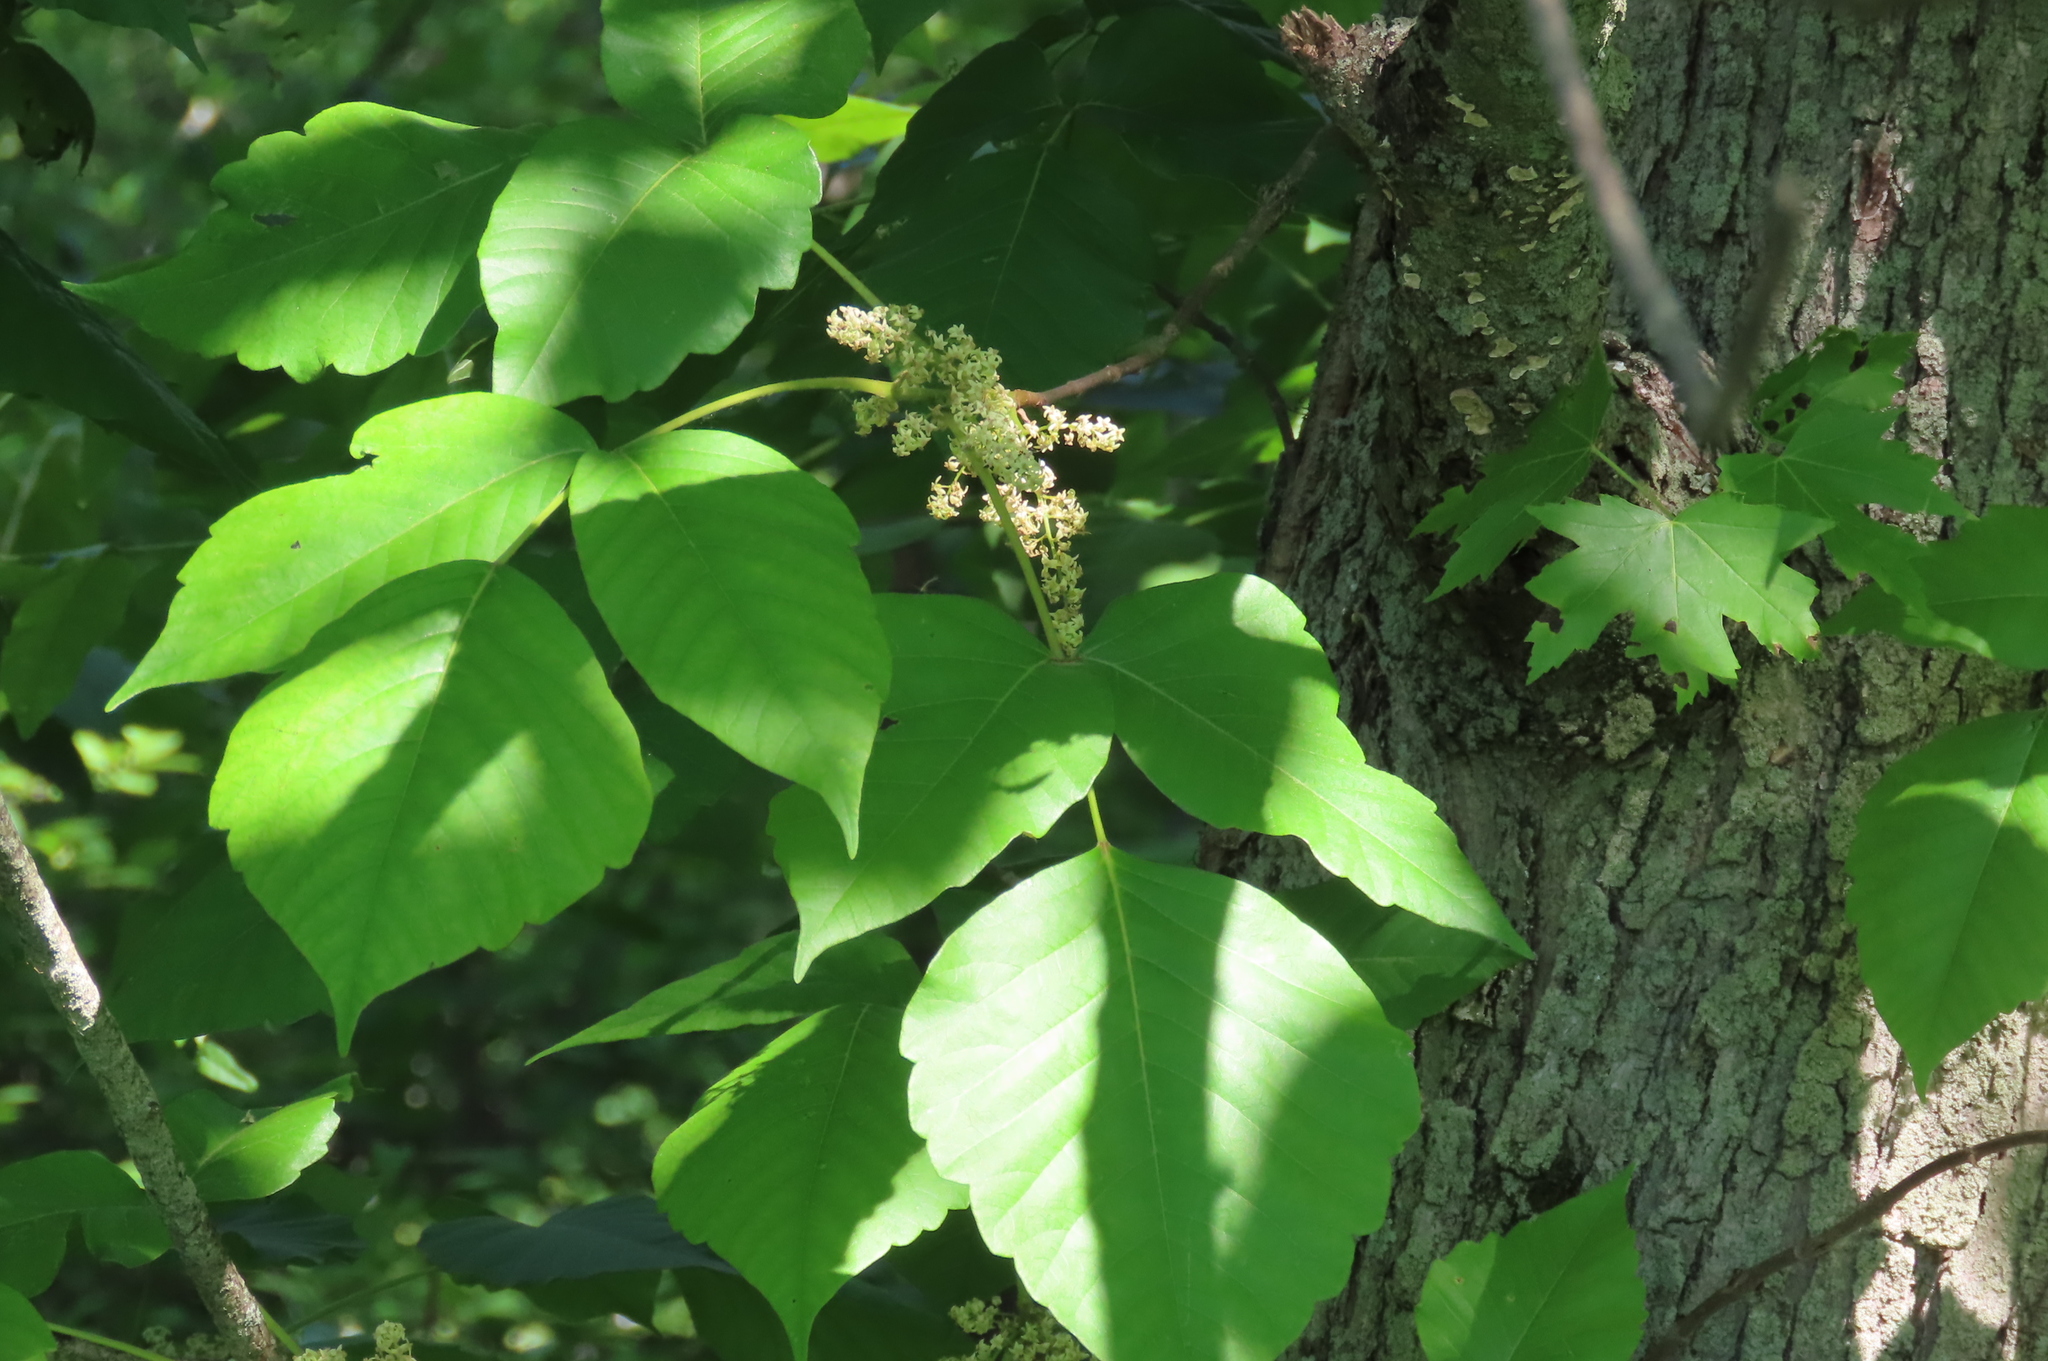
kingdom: Plantae
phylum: Tracheophyta
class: Magnoliopsida
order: Sapindales
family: Anacardiaceae
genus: Toxicodendron
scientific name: Toxicodendron radicans
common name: Poison ivy
